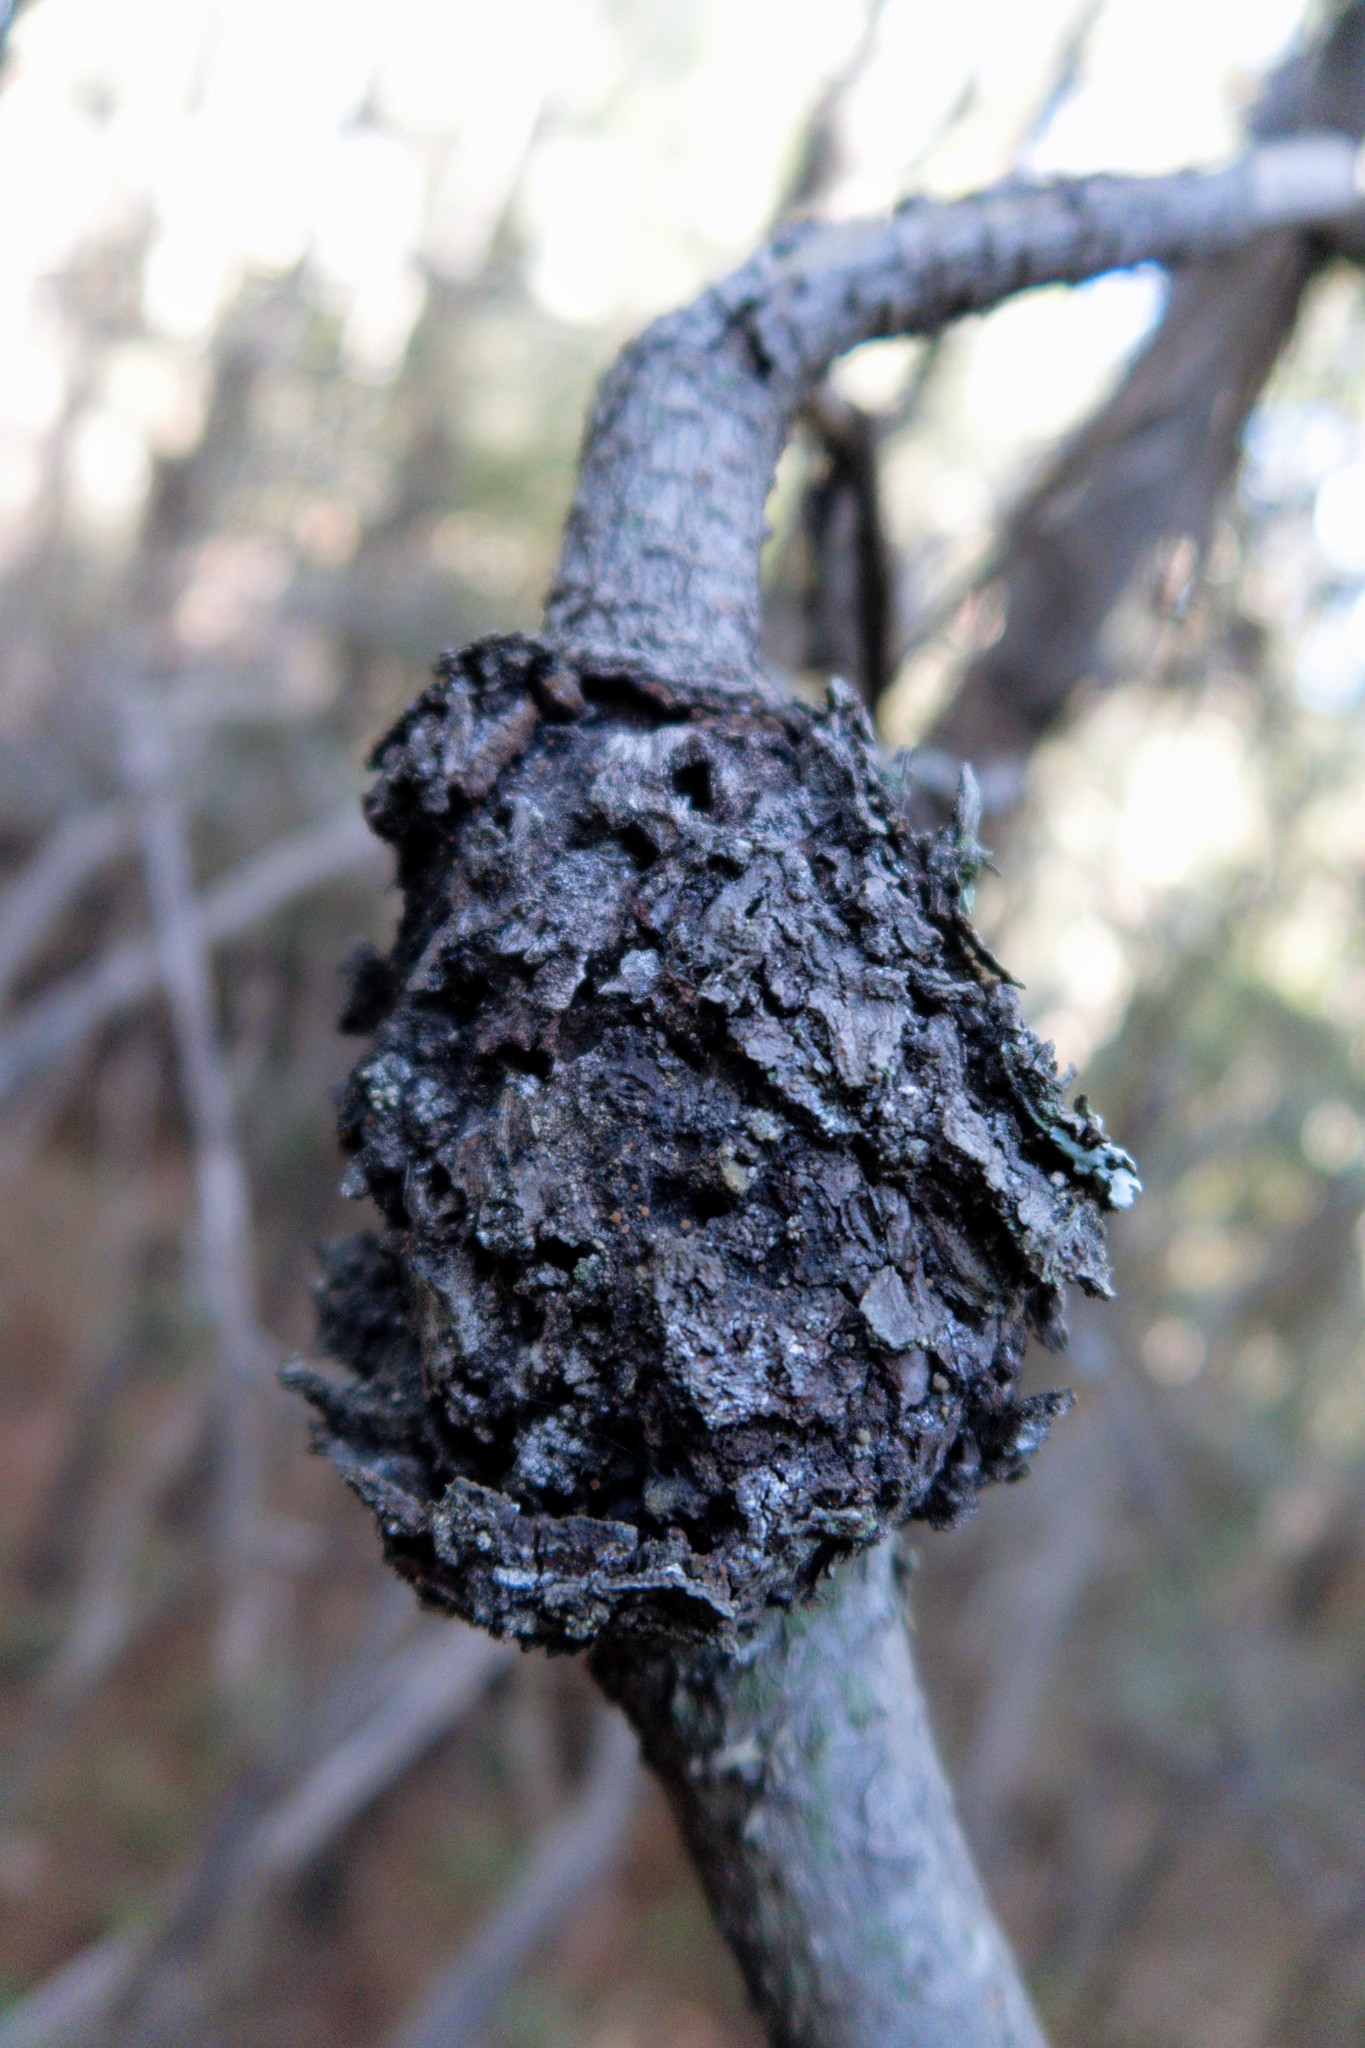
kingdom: Fungi
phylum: Basidiomycota
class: Pucciniomycetes
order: Pucciniales
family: Cronartiaceae
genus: Cronartium
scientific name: Cronartium harknessii
